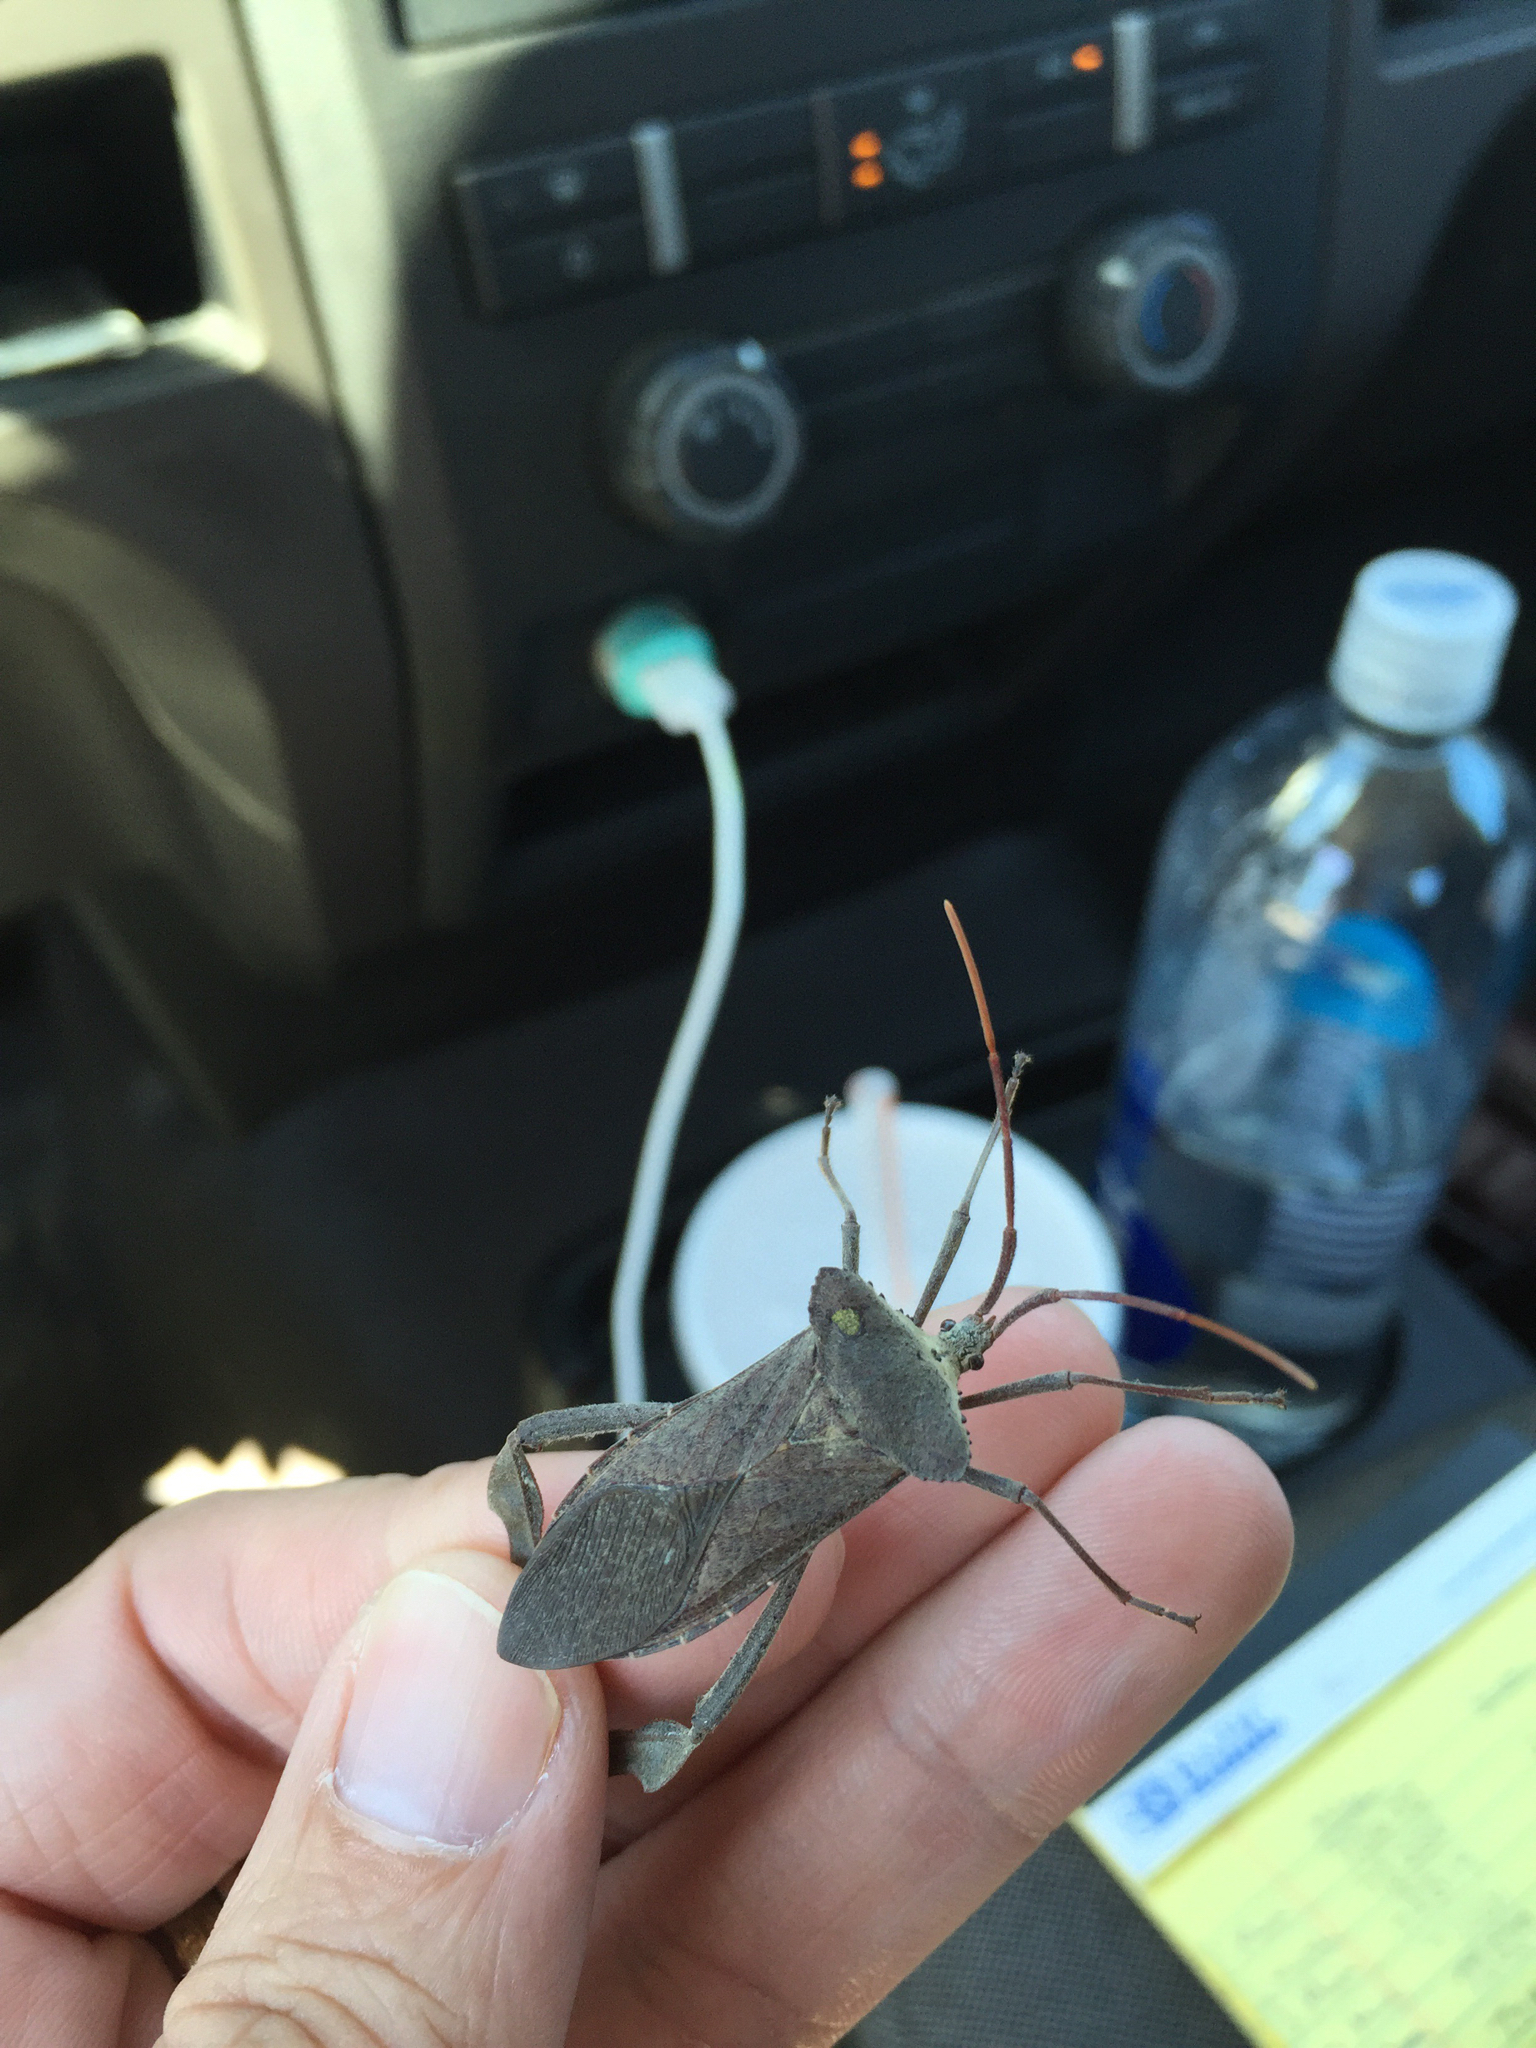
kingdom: Animalia
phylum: Arthropoda
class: Insecta
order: Hemiptera
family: Coreidae
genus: Acanthocephala
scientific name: Acanthocephala declivis
